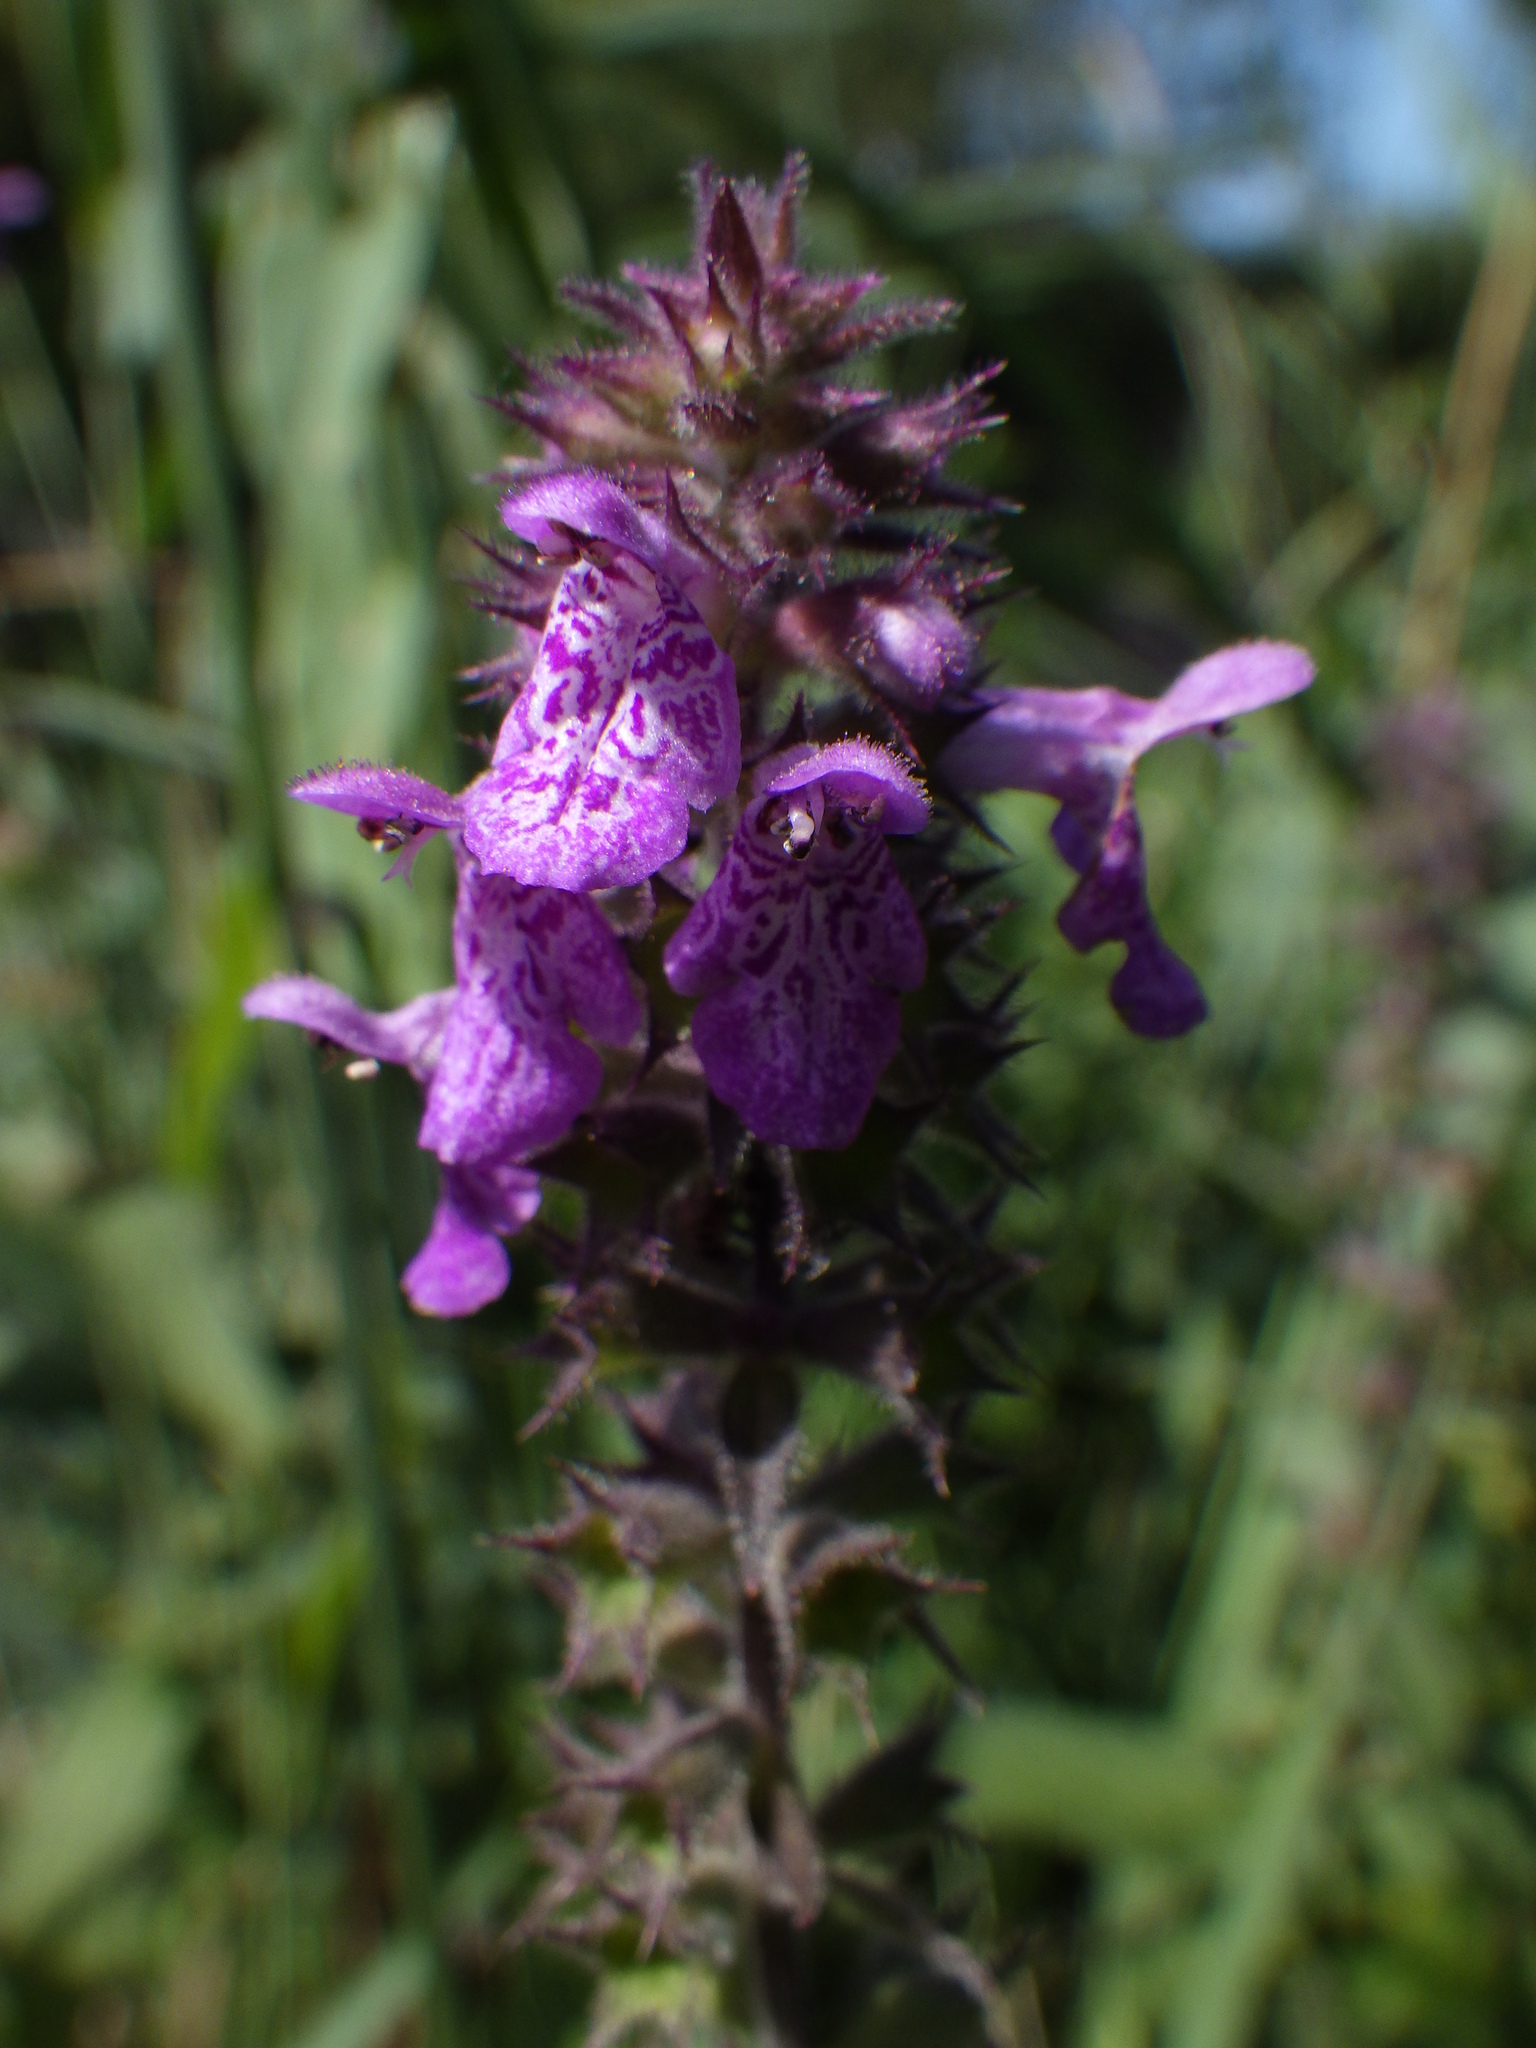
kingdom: Plantae
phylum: Tracheophyta
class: Magnoliopsida
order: Lamiales
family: Lamiaceae
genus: Stachys
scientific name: Stachys palustris
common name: Marsh woundwort
